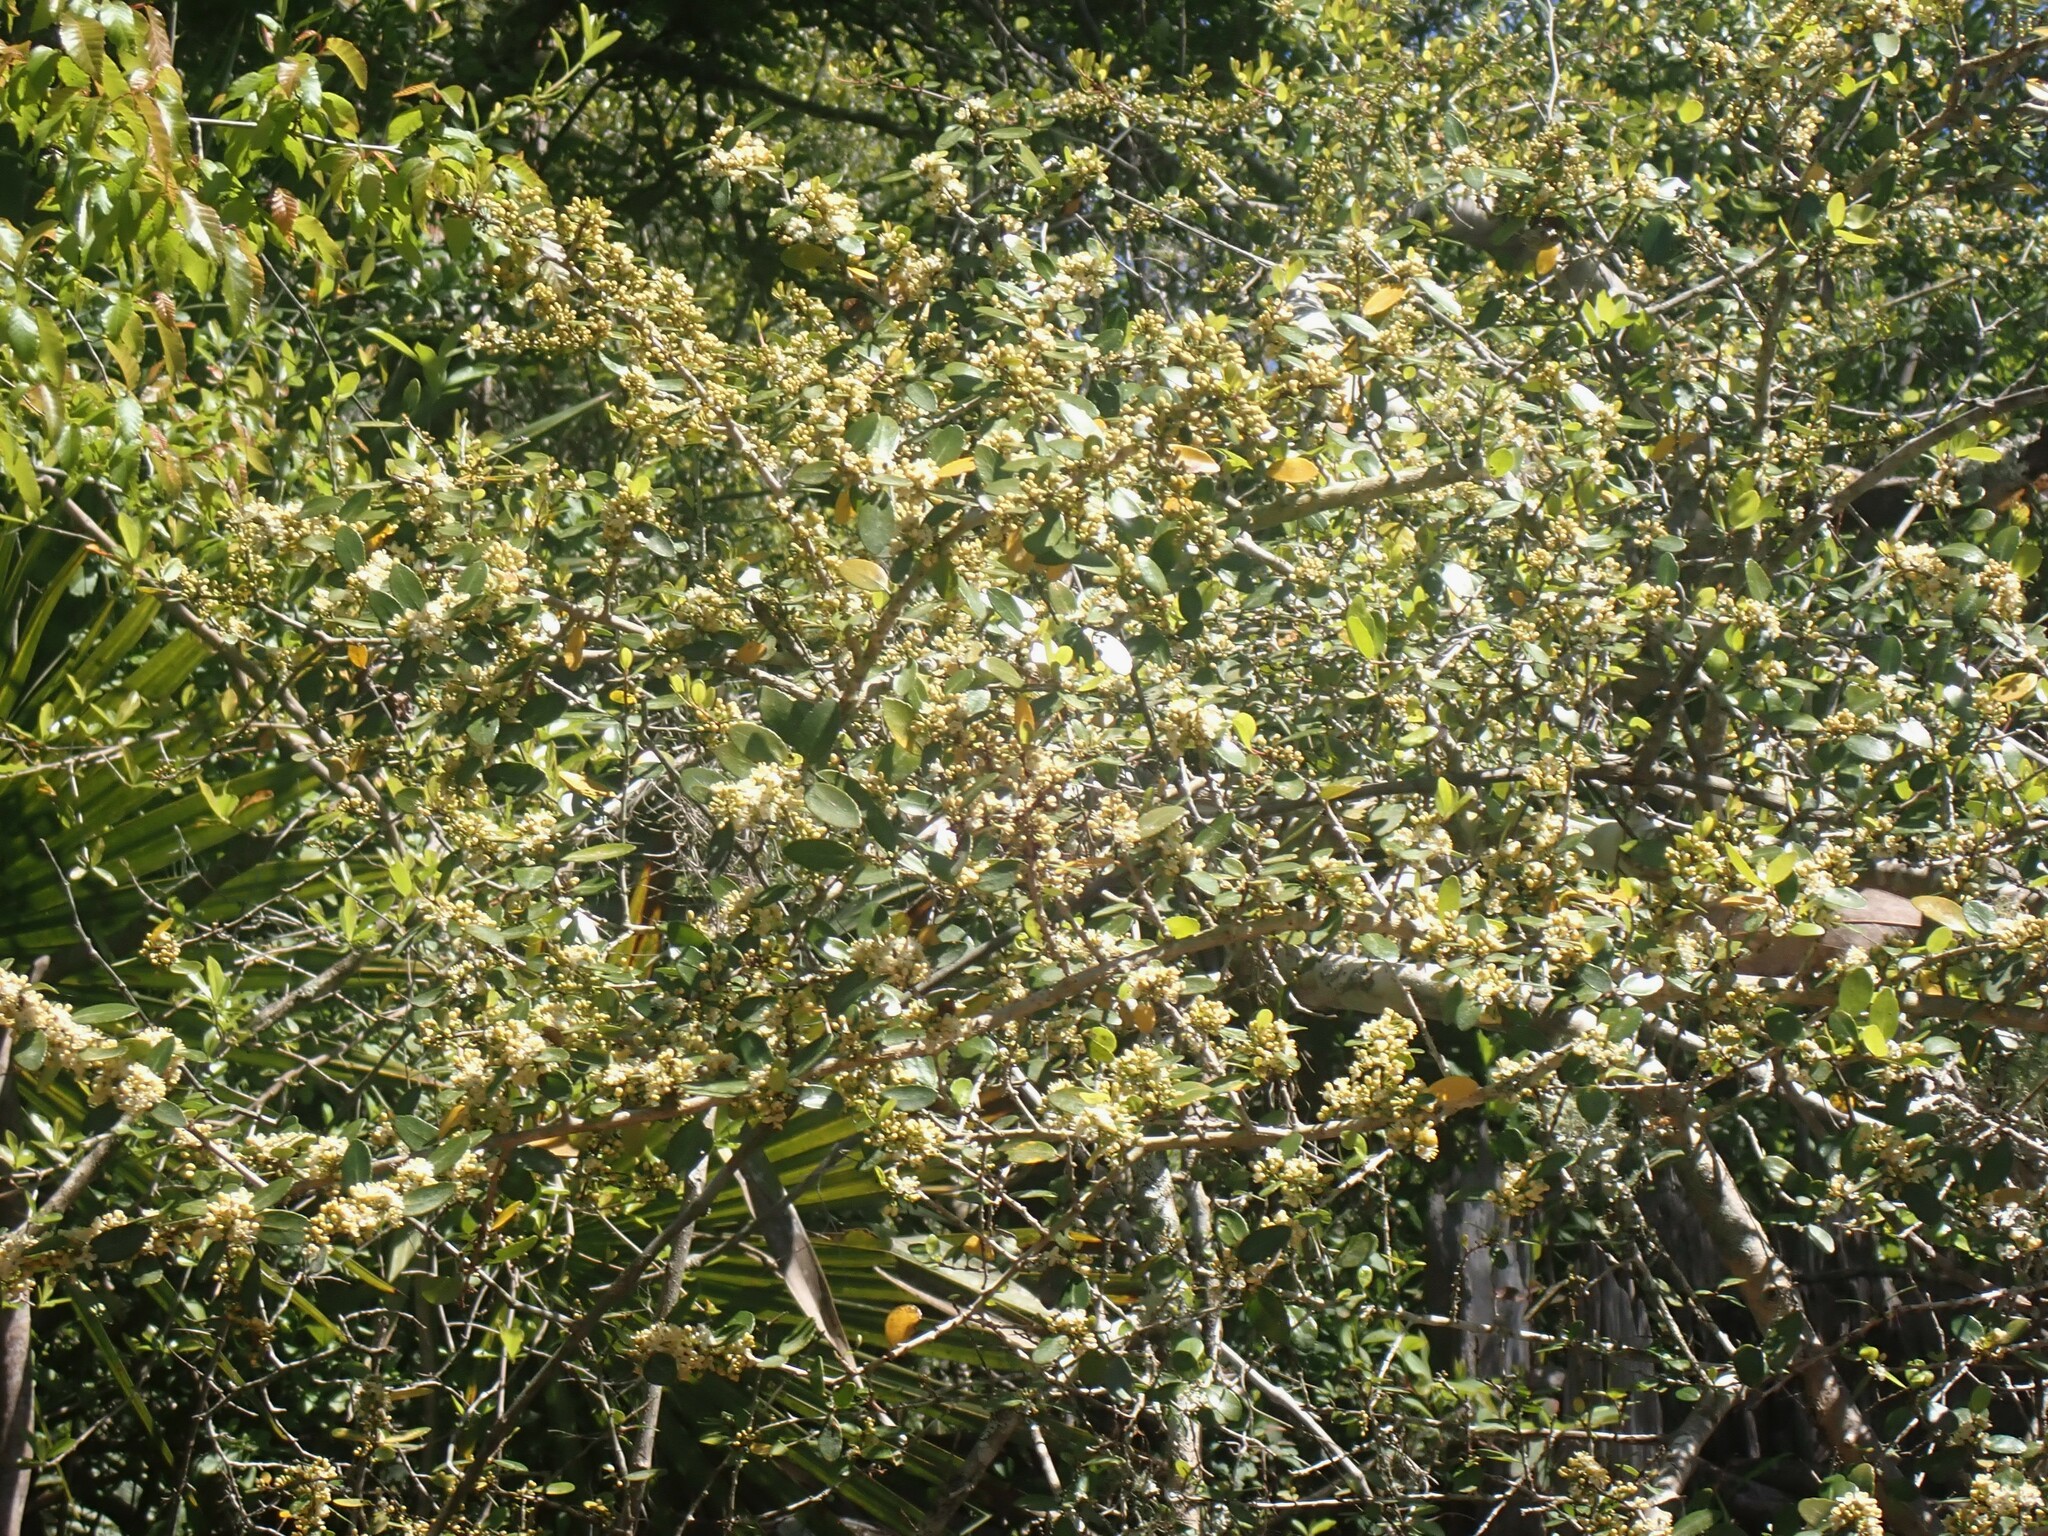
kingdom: Plantae
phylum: Tracheophyta
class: Magnoliopsida
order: Aquifoliales
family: Aquifoliaceae
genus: Ilex
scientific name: Ilex vomitoria
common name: Yaupon holly
